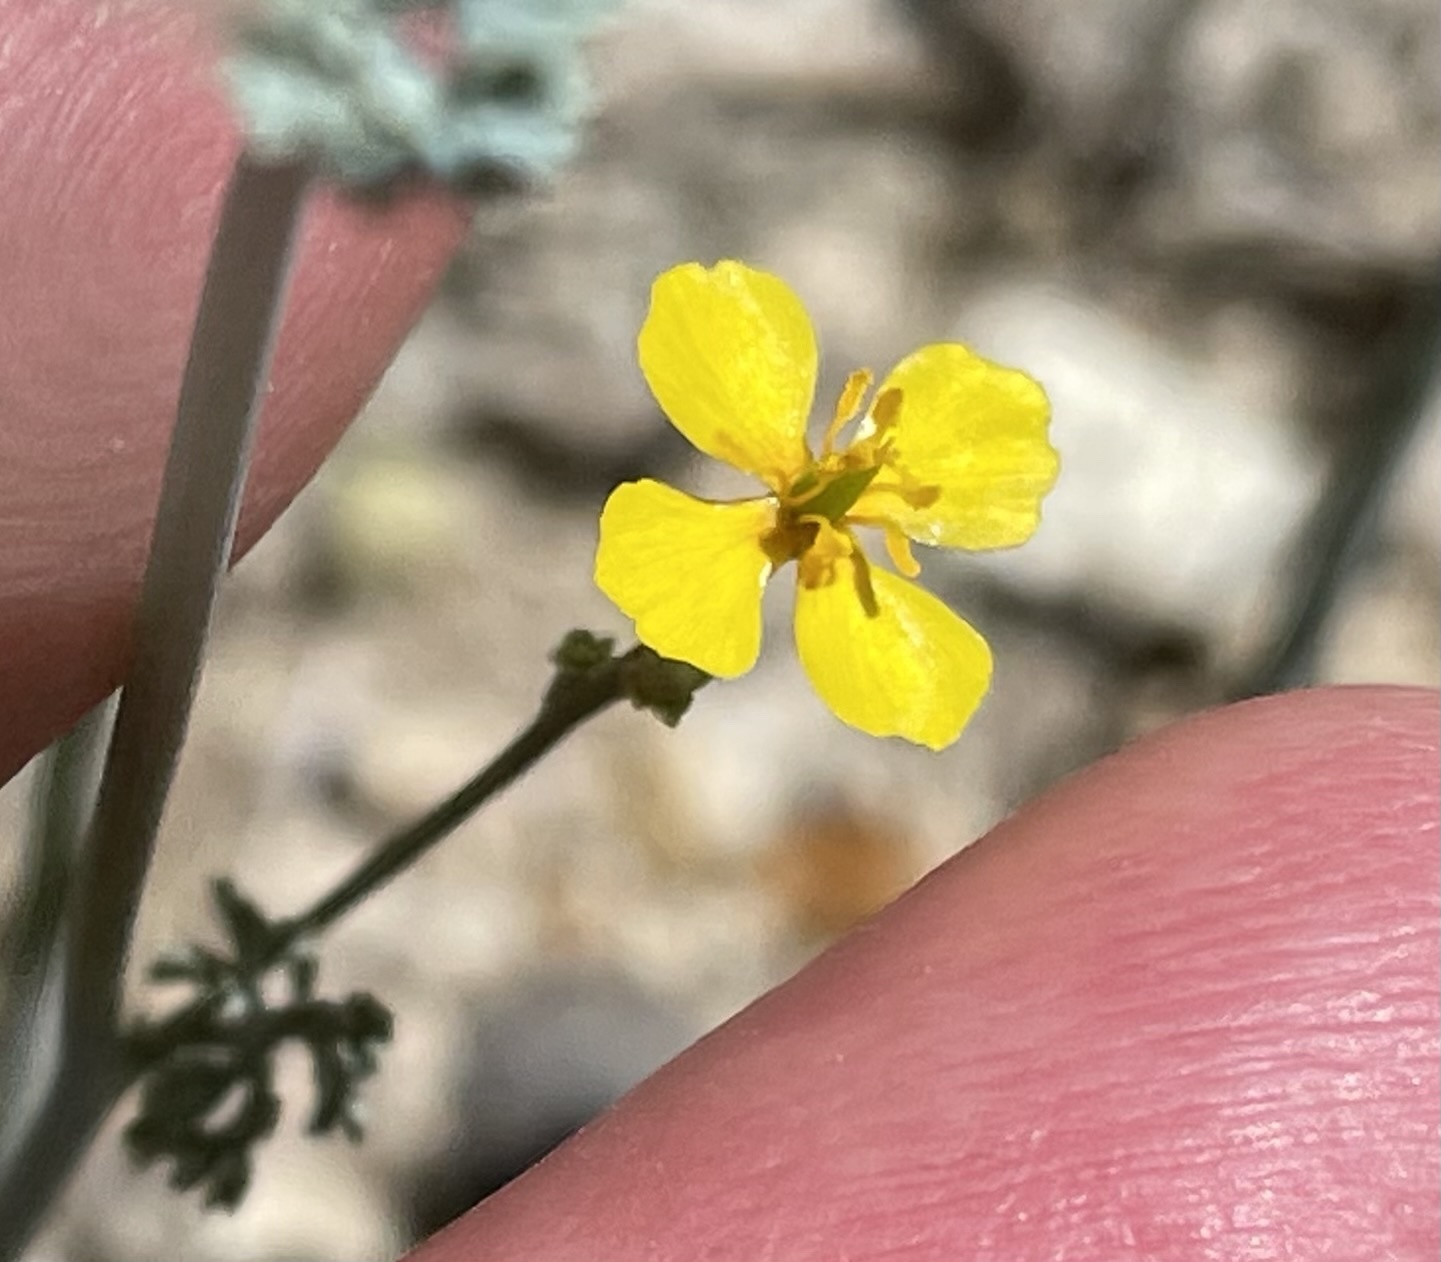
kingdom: Plantae
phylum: Tracheophyta
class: Magnoliopsida
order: Ranunculales
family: Papaveraceae
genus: Eschscholzia
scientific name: Eschscholzia minutiflora
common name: Small-flower california-poppy
